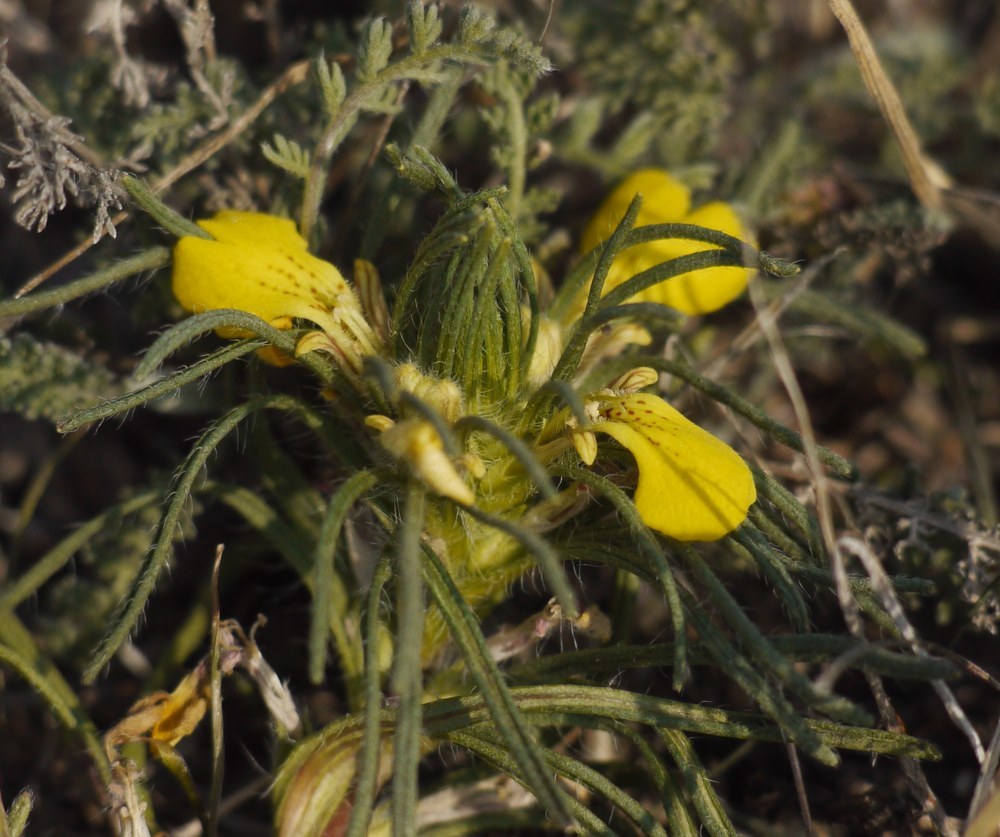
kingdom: Plantae
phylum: Tracheophyta
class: Magnoliopsida
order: Lamiales
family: Lamiaceae
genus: Ajuga
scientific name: Ajuga chamaepitys
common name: Ground-pine
